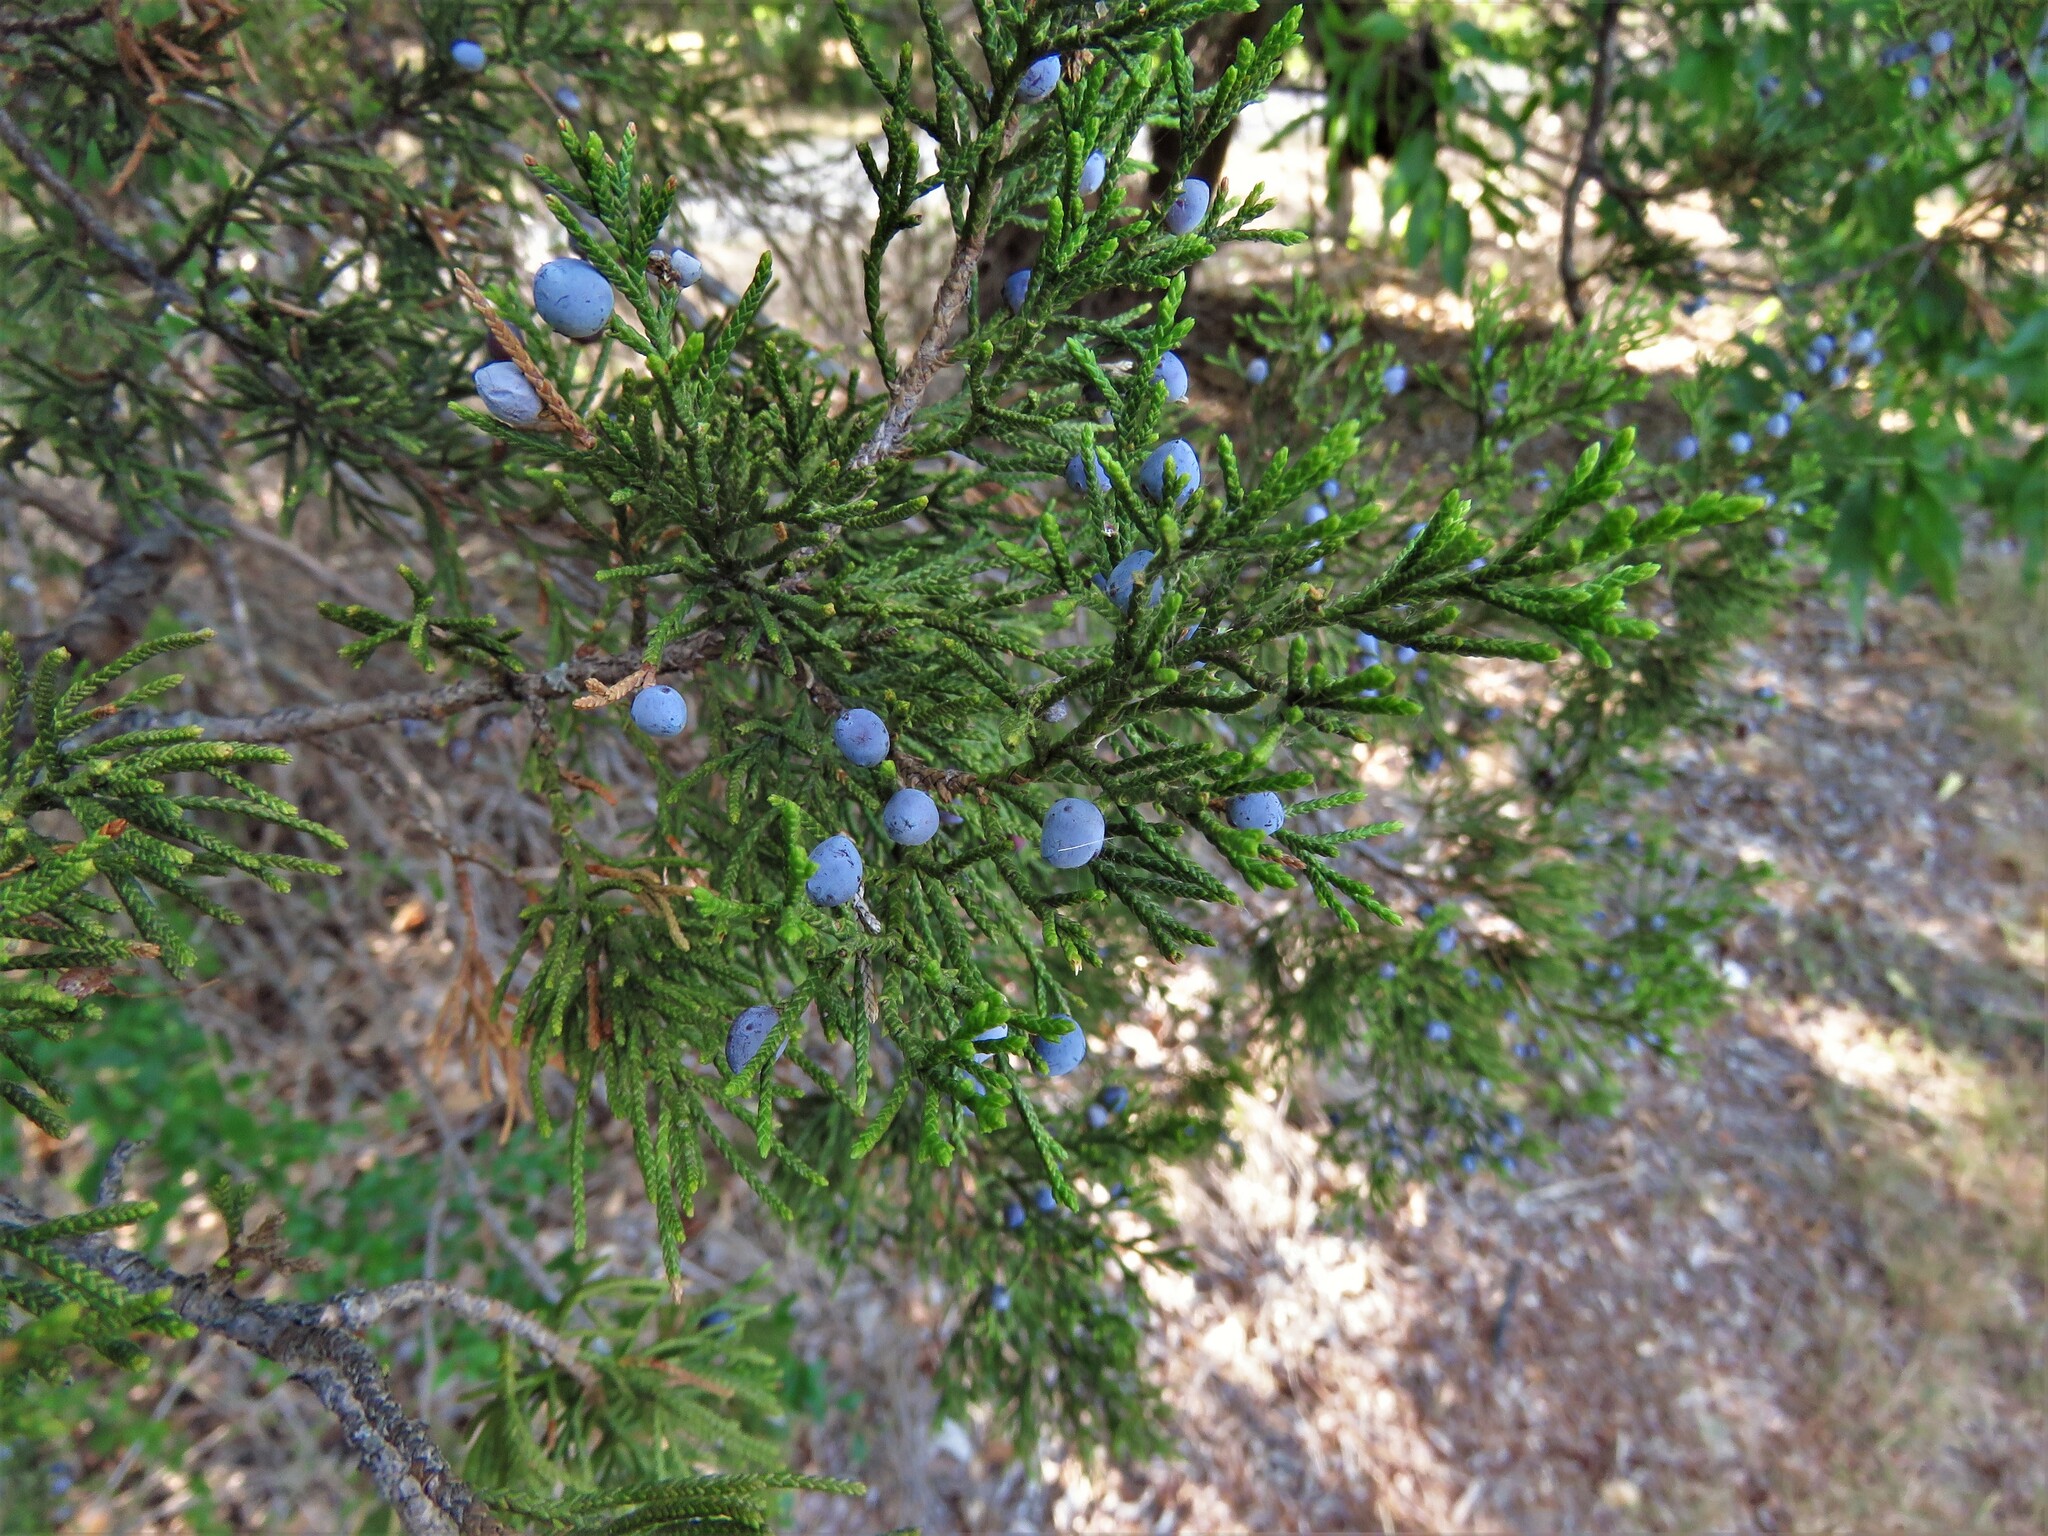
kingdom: Plantae
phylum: Tracheophyta
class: Pinopsida
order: Pinales
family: Cupressaceae
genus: Juniperus
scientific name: Juniperus virginiana
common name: Red juniper
